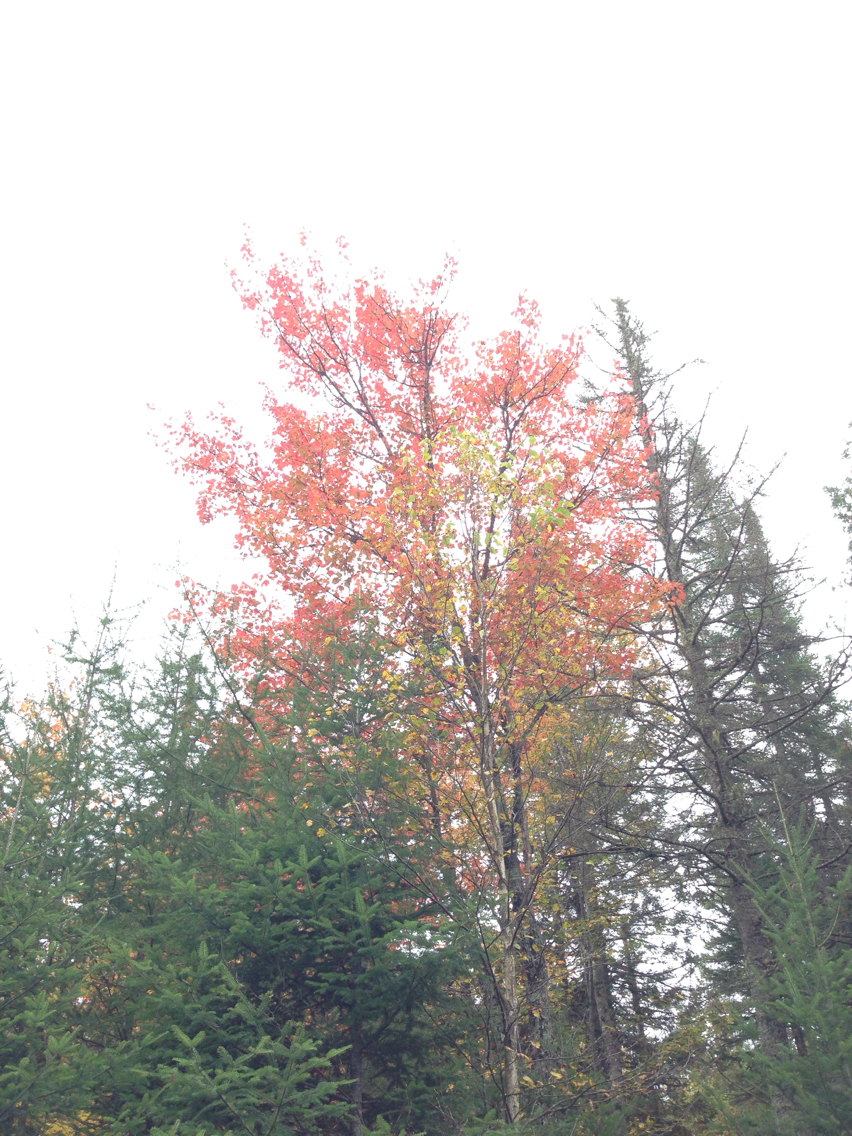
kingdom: Plantae
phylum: Tracheophyta
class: Magnoliopsida
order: Sapindales
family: Sapindaceae
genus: Acer
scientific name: Acer rubrum
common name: Red maple
